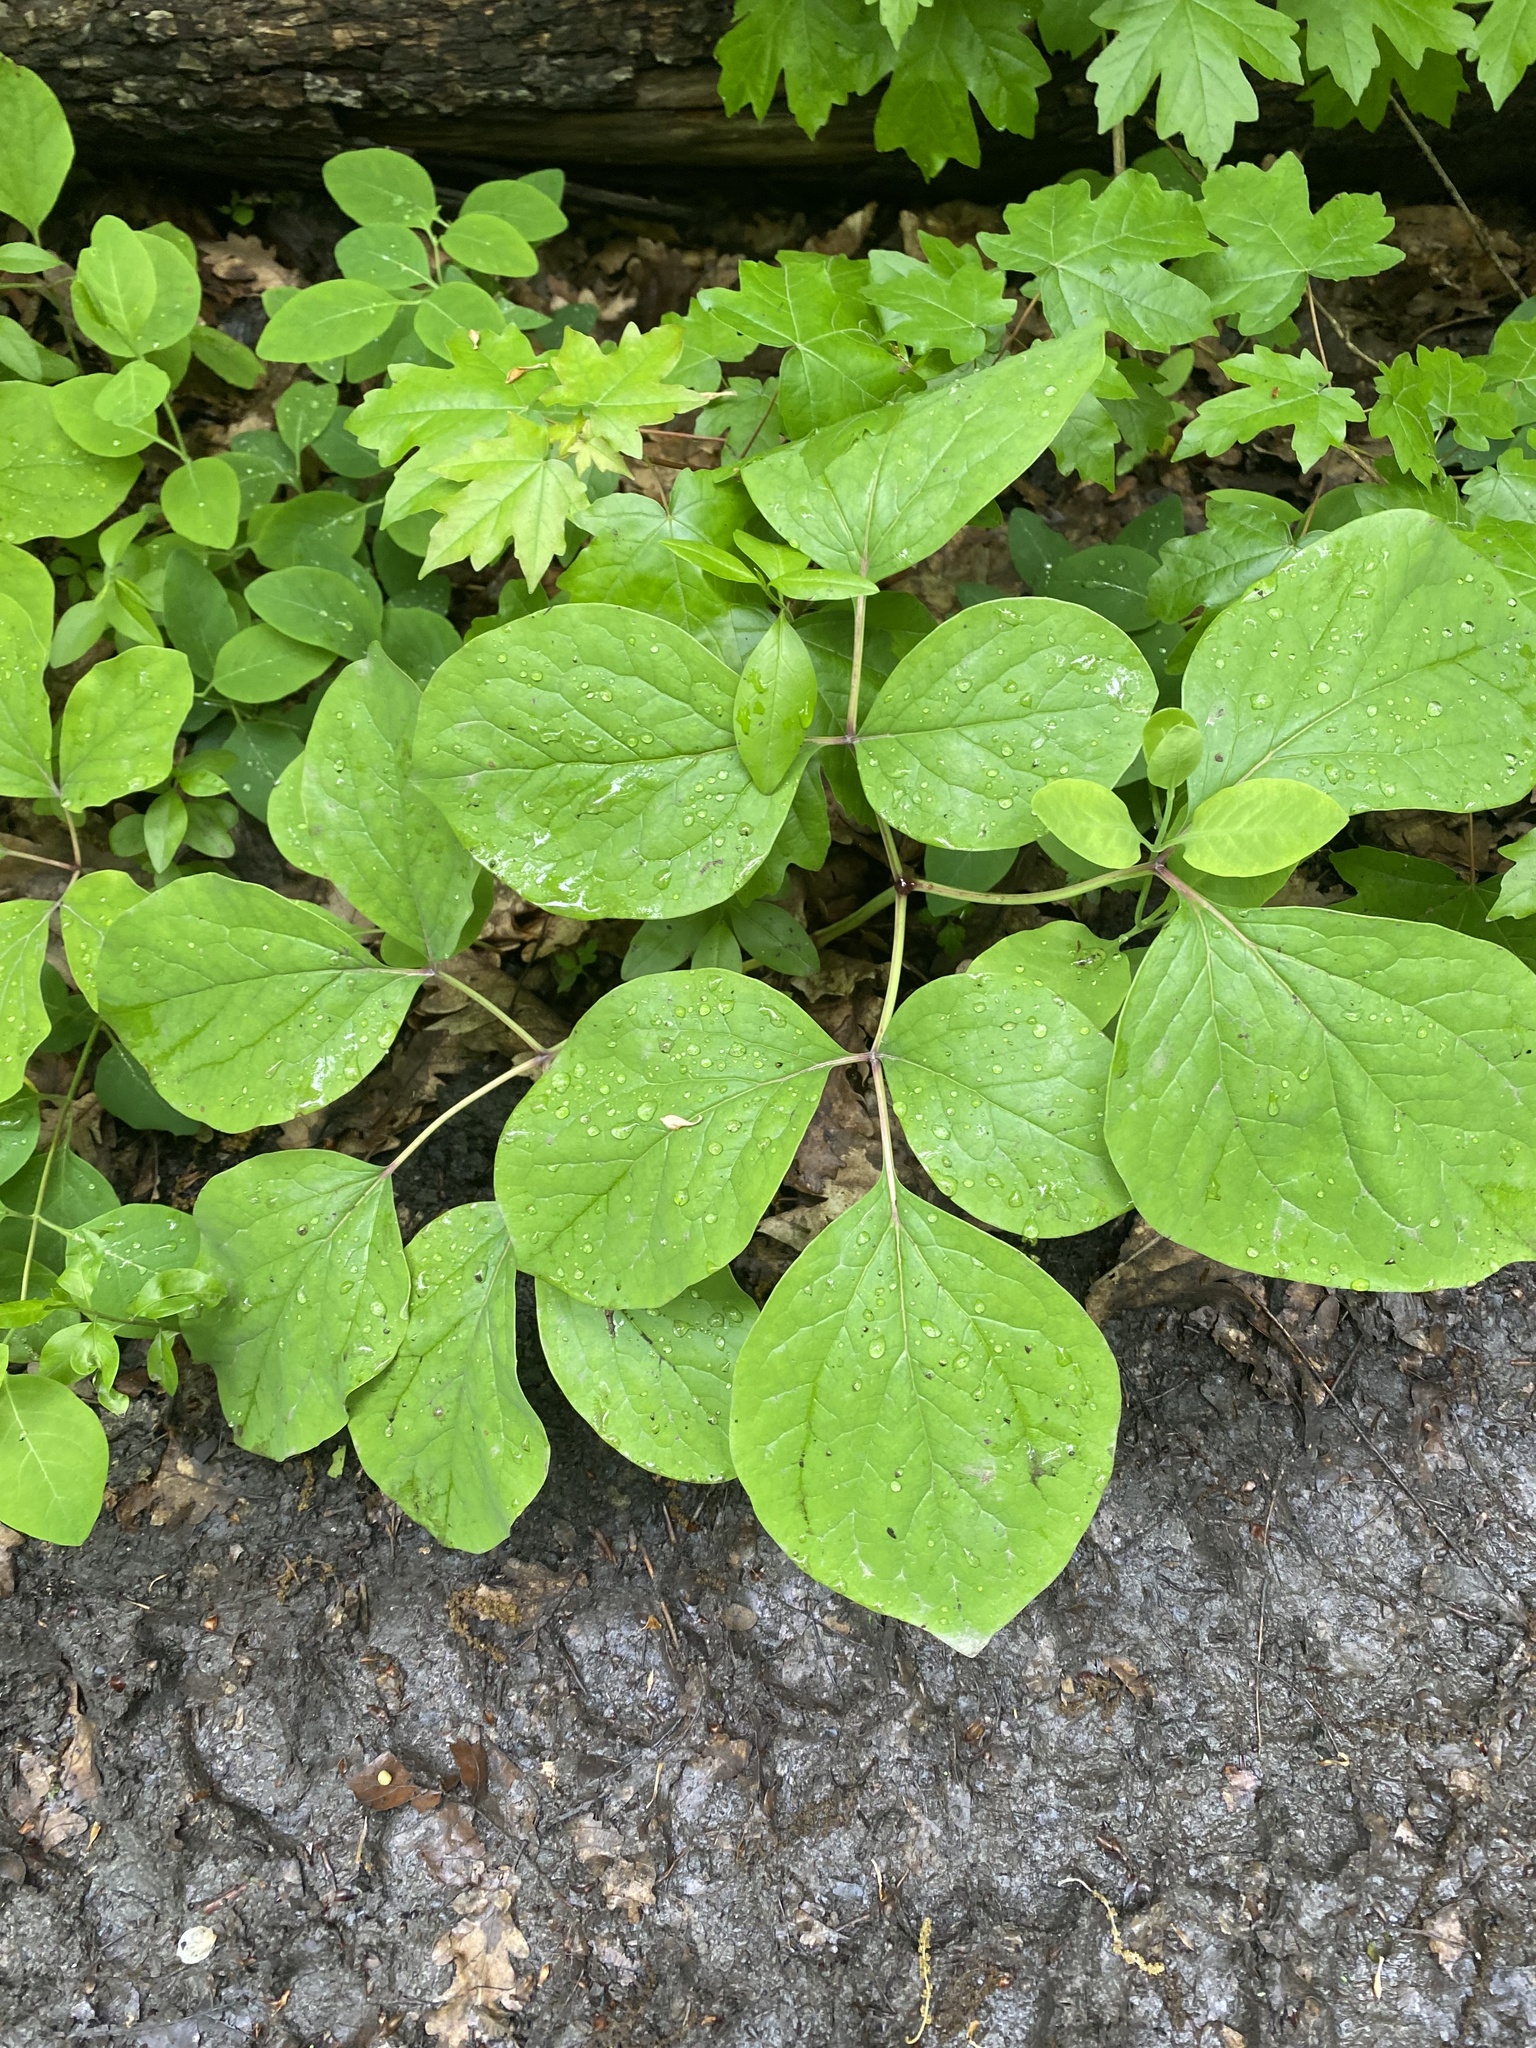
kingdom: Plantae
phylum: Tracheophyta
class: Magnoliopsida
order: Saxifragales
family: Paeoniaceae
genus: Paeonia
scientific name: Paeonia caucasica
